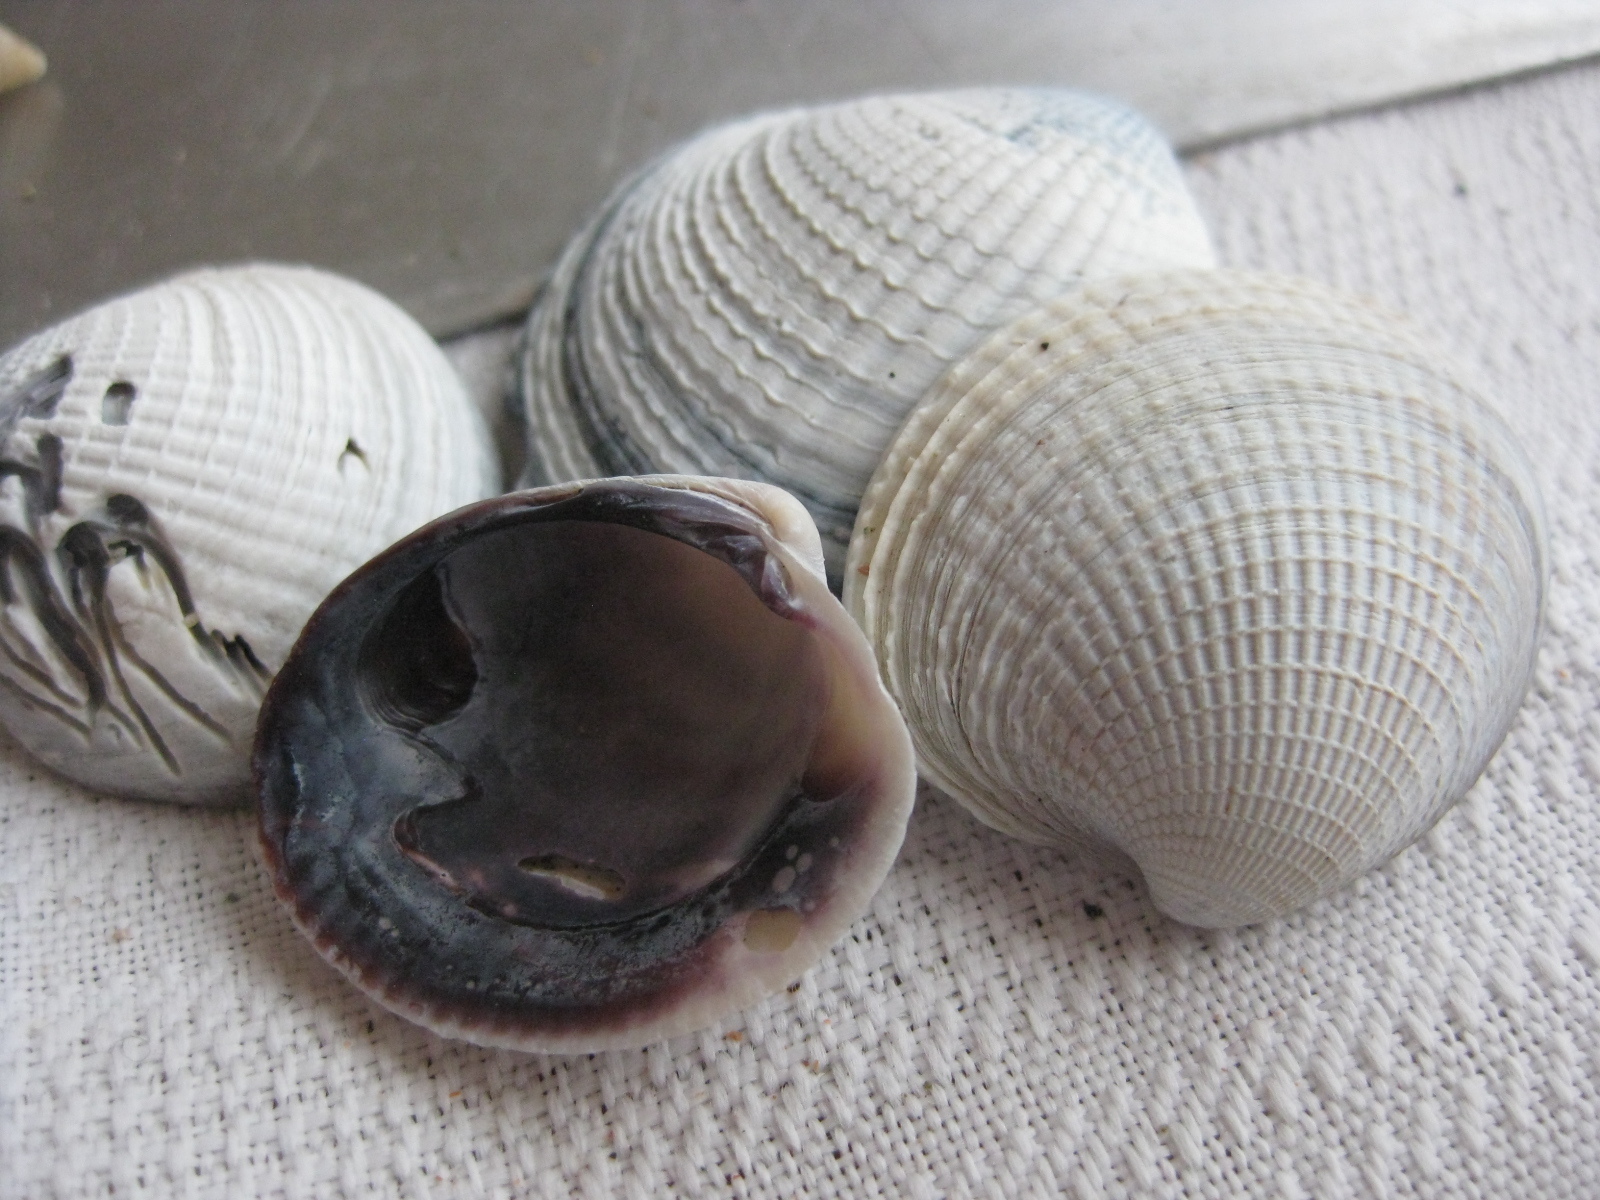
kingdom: Animalia
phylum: Mollusca
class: Bivalvia
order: Venerida
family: Veneridae
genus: Austrovenus
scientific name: Austrovenus stutchburyi
